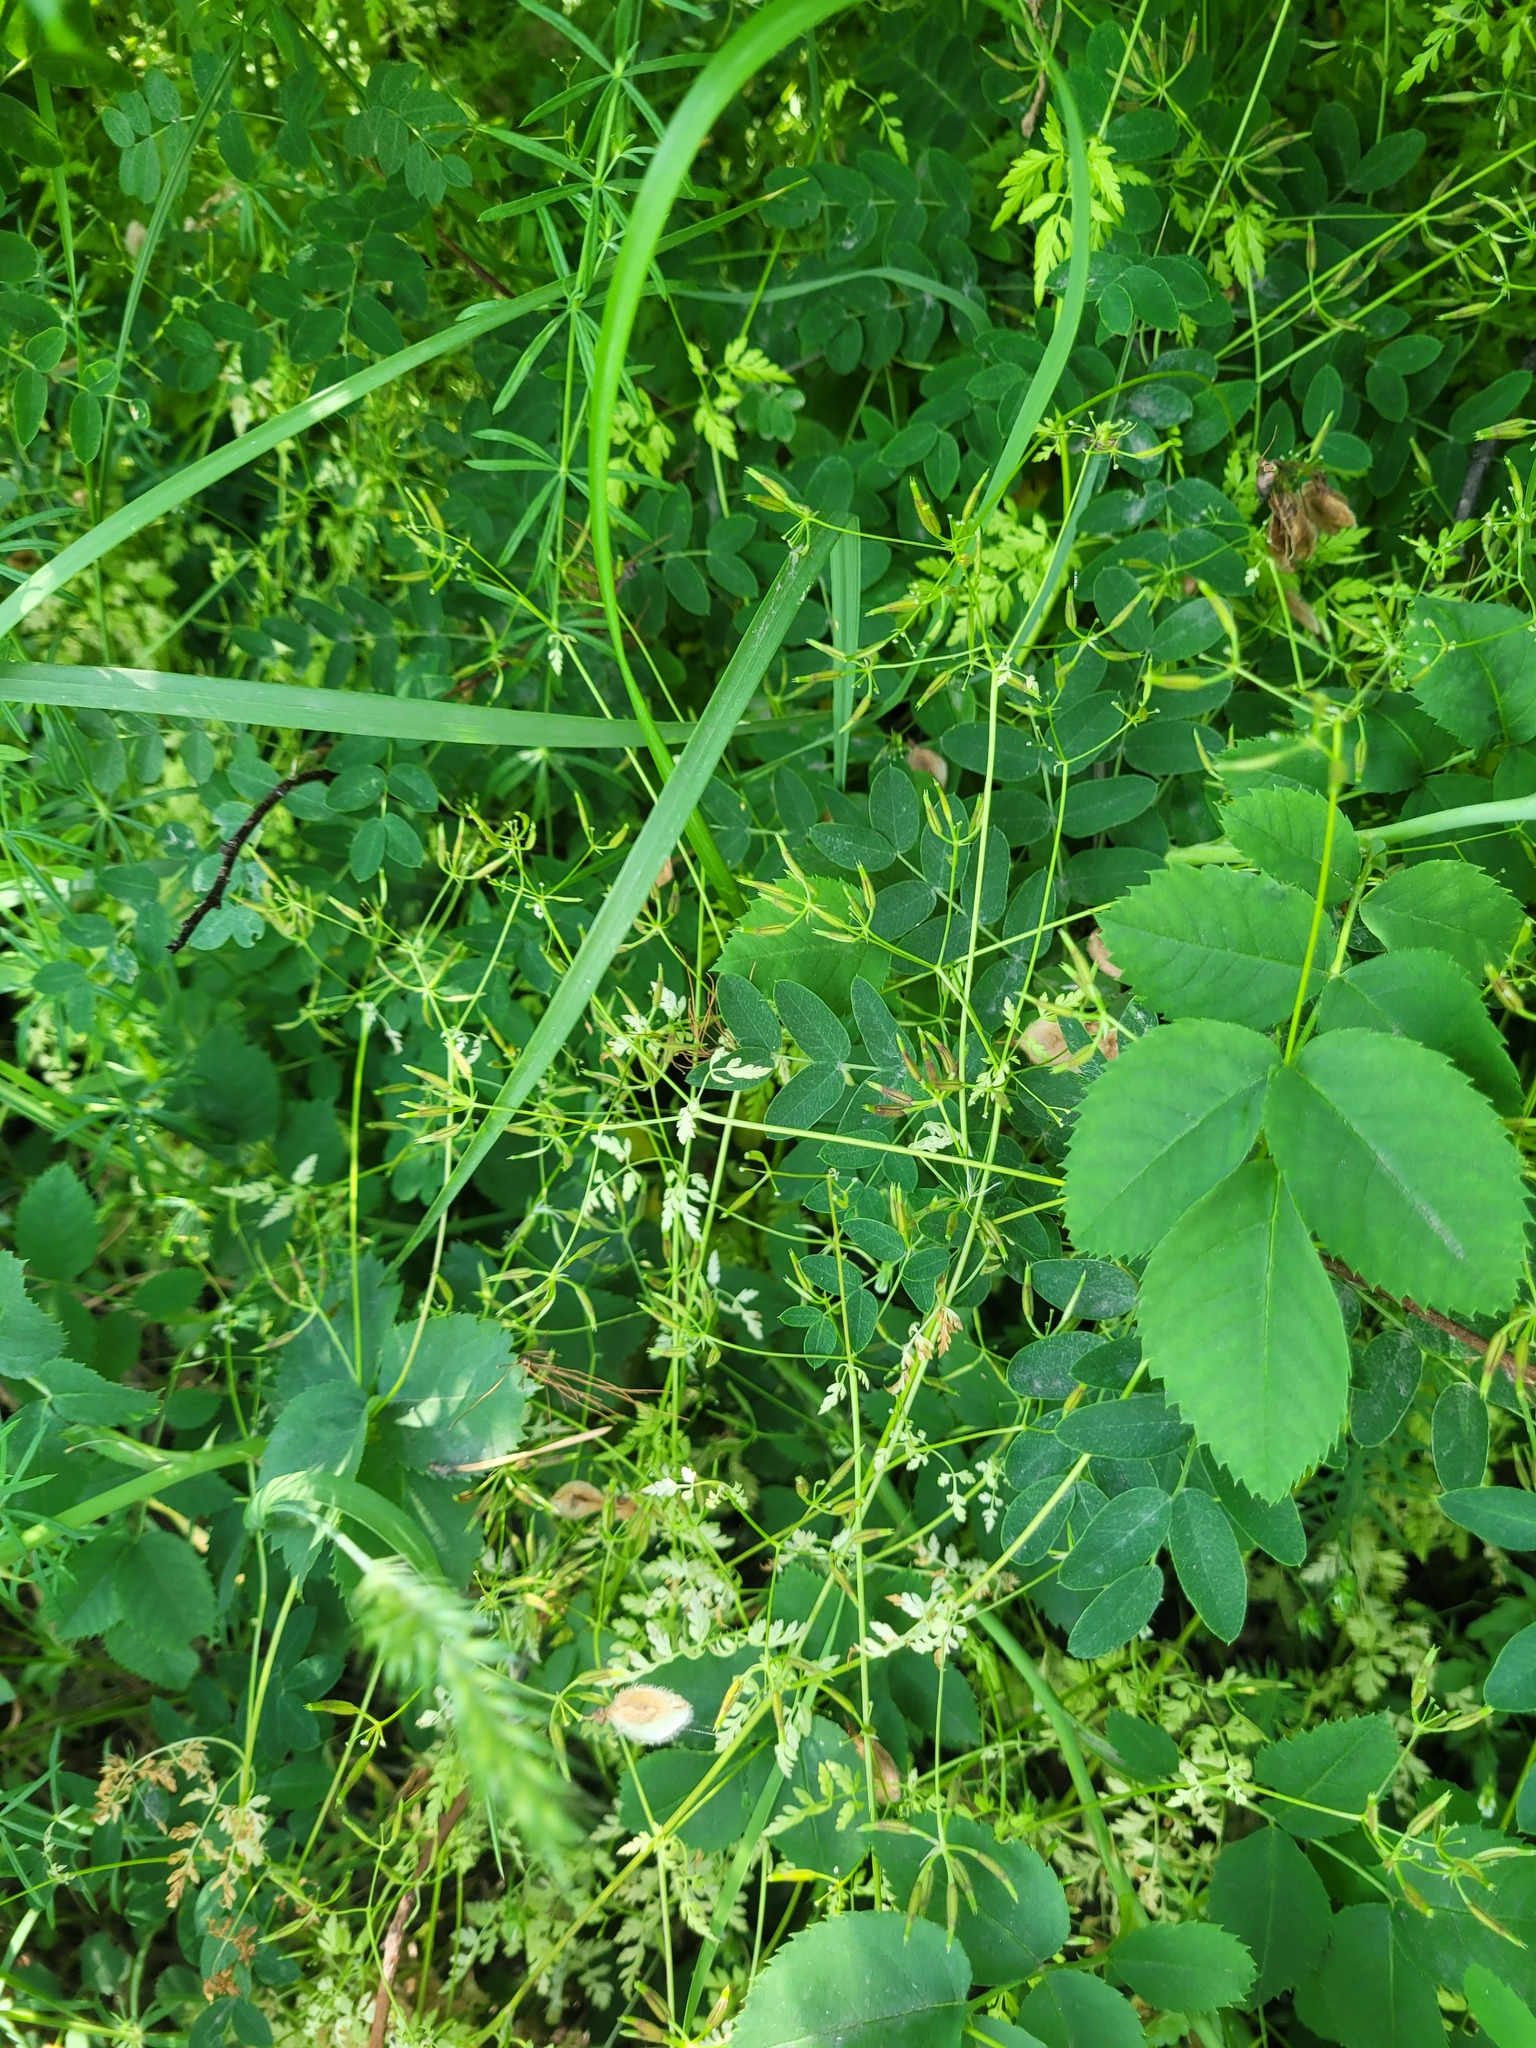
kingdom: Plantae
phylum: Tracheophyta
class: Magnoliopsida
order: Apiales
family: Apiaceae
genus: Anthriscus
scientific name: Anthriscus cerefolium
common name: Garden chervil
